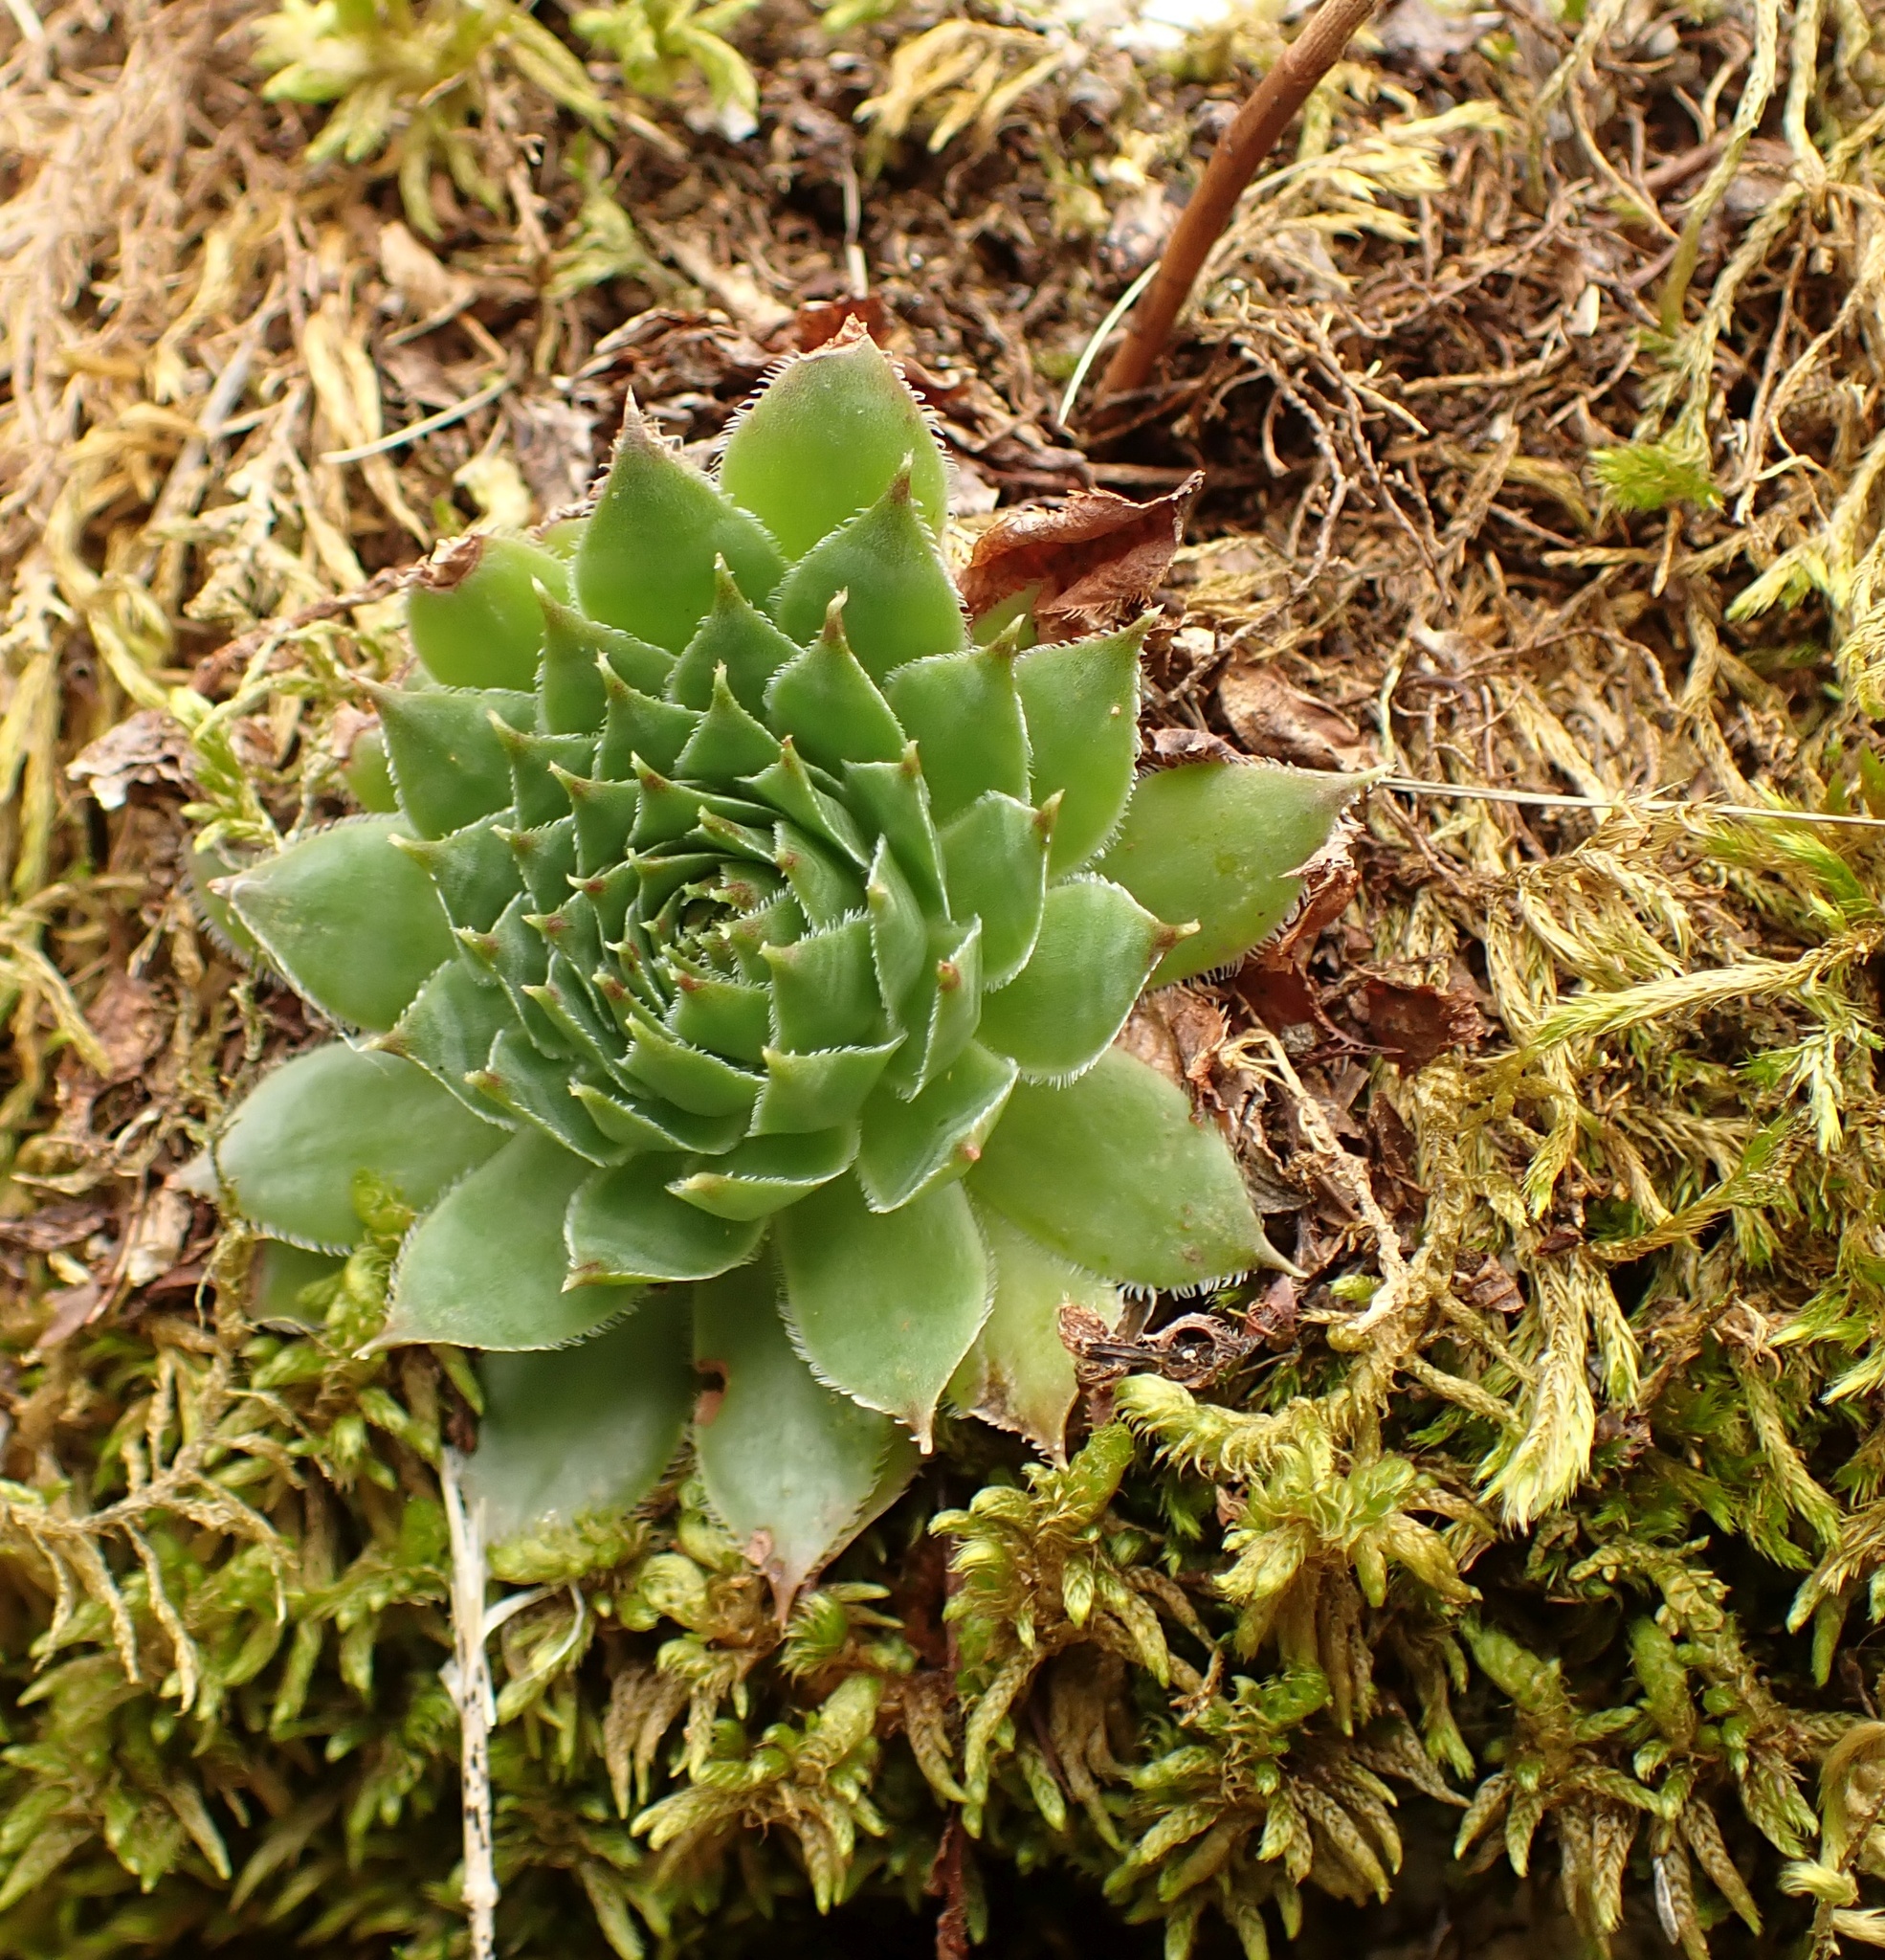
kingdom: Plantae
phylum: Tracheophyta
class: Magnoliopsida
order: Saxifragales
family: Crassulaceae
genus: Sempervivum
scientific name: Sempervivum tectorum
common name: House-leek
